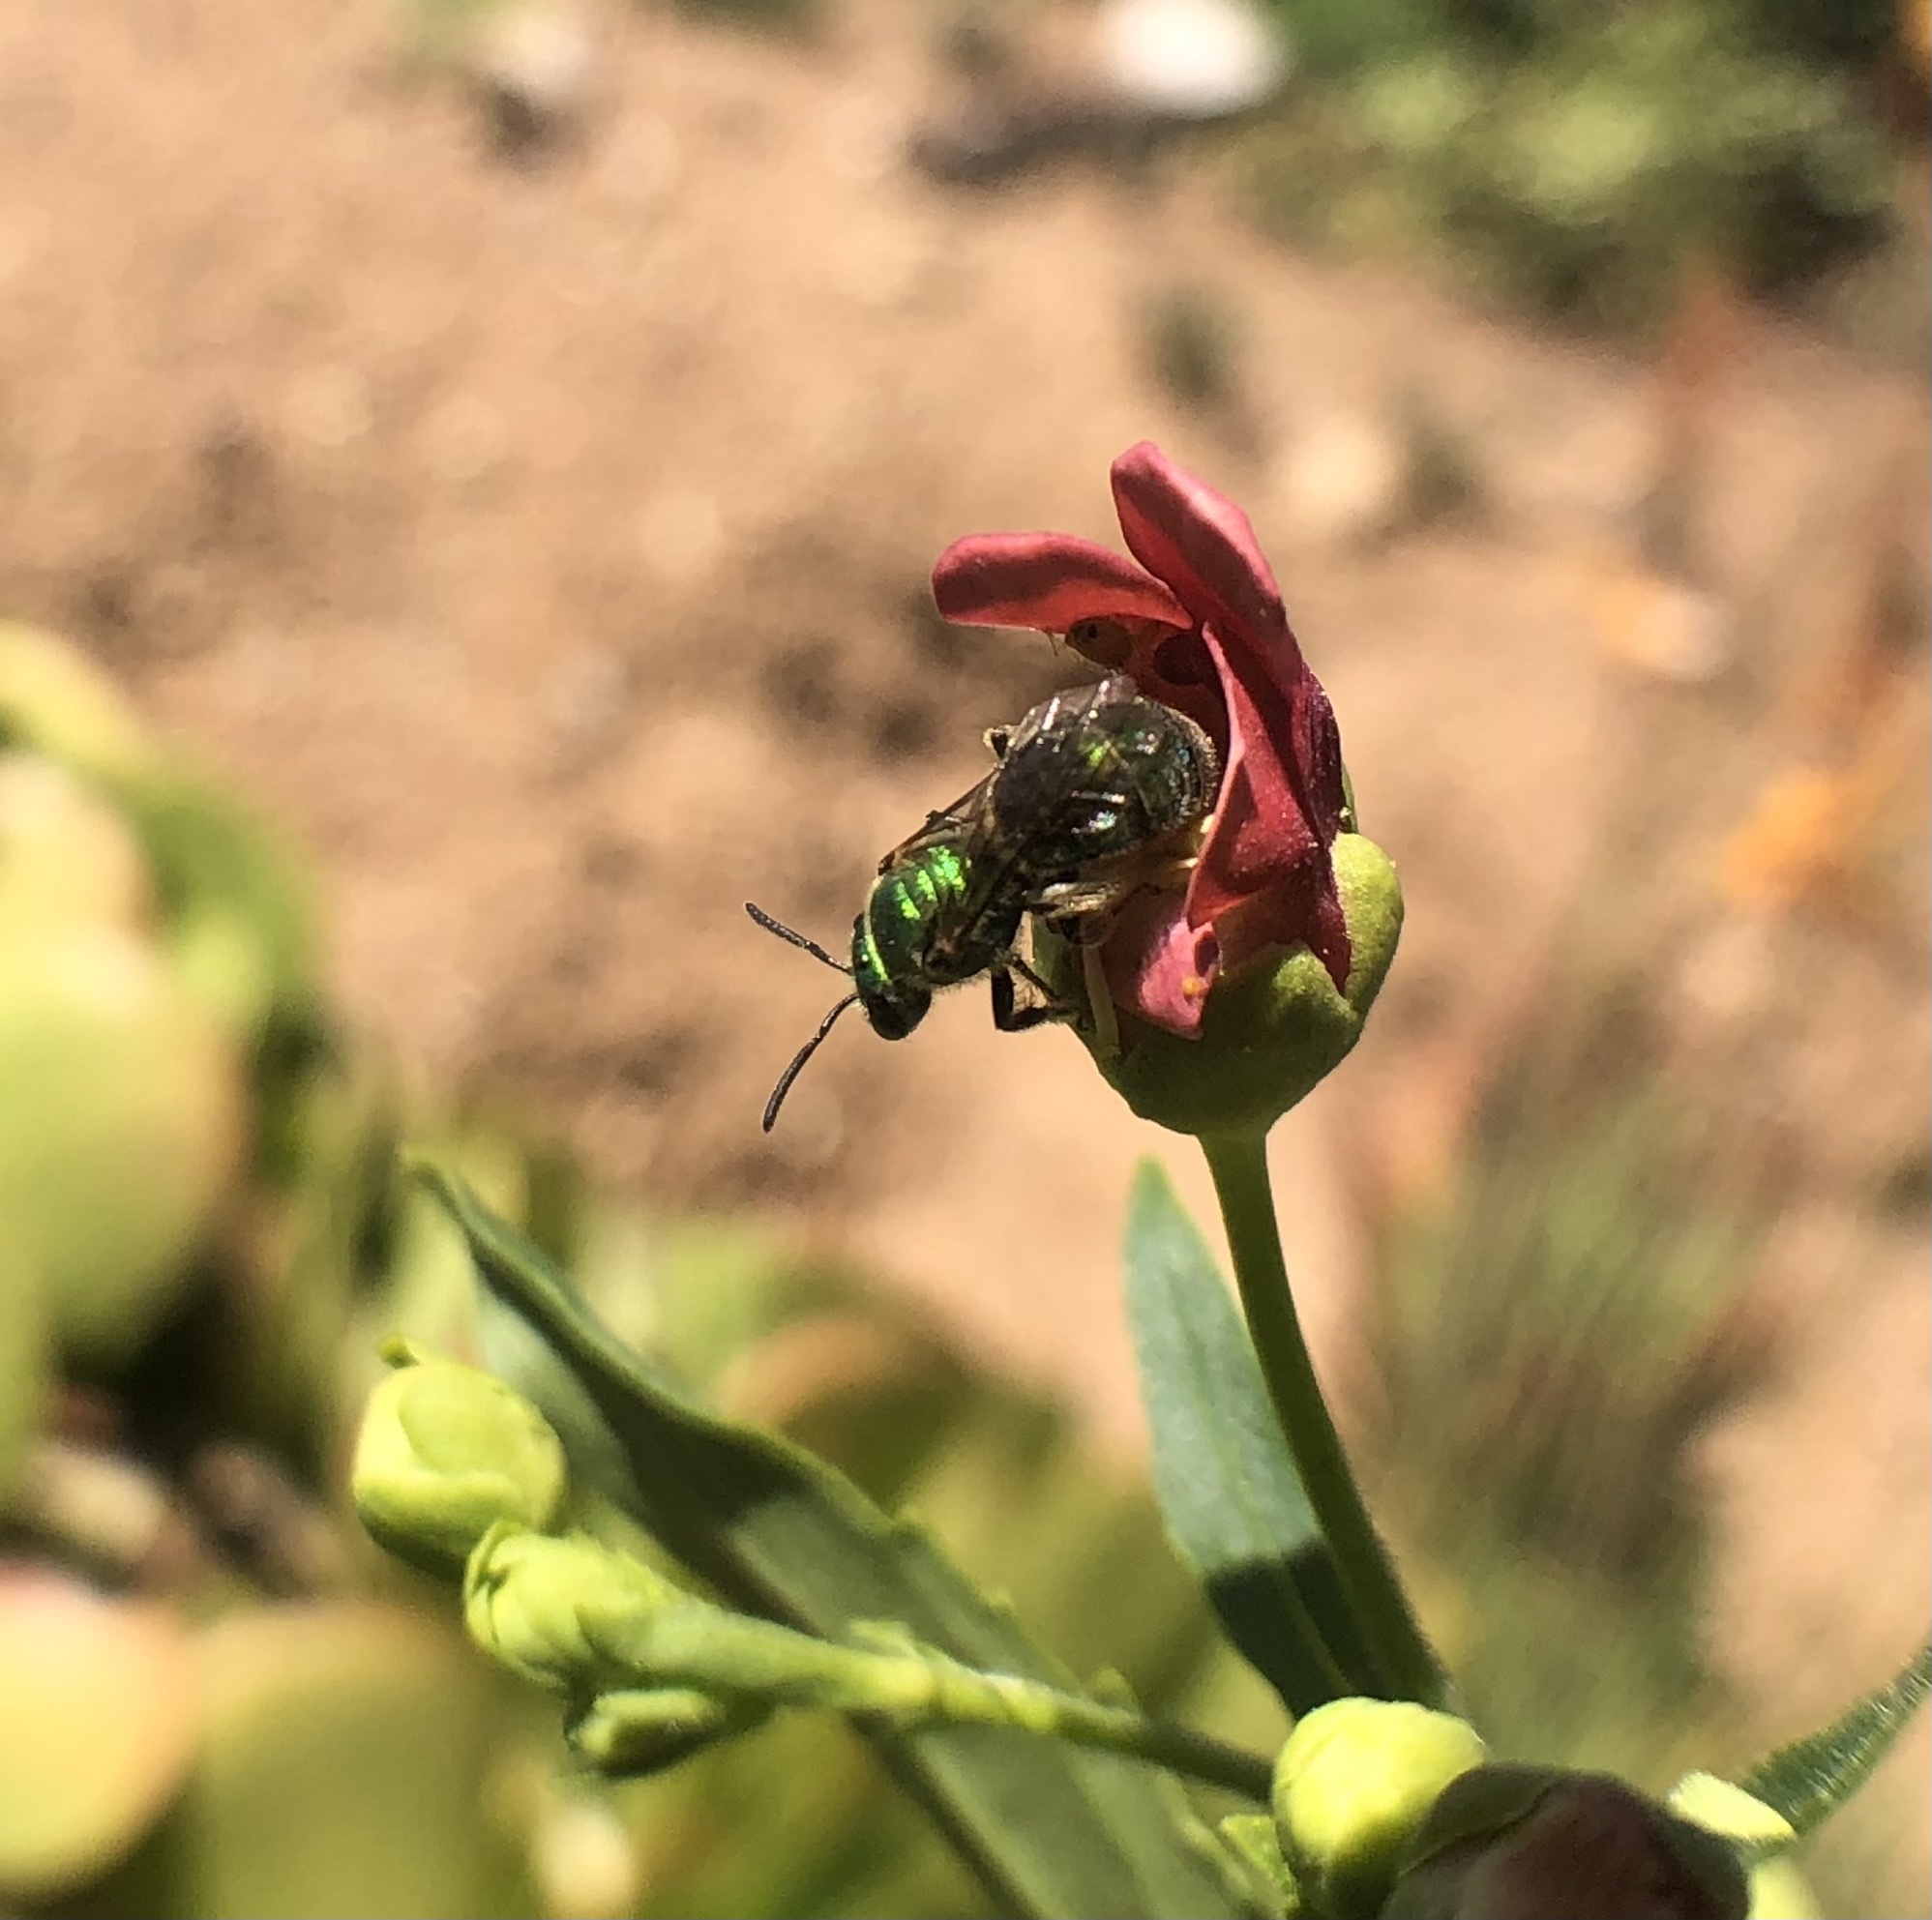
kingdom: Animalia
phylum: Arthropoda
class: Insecta
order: Hymenoptera
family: Halictidae
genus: Augochlorella
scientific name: Augochlorella pomoniella
